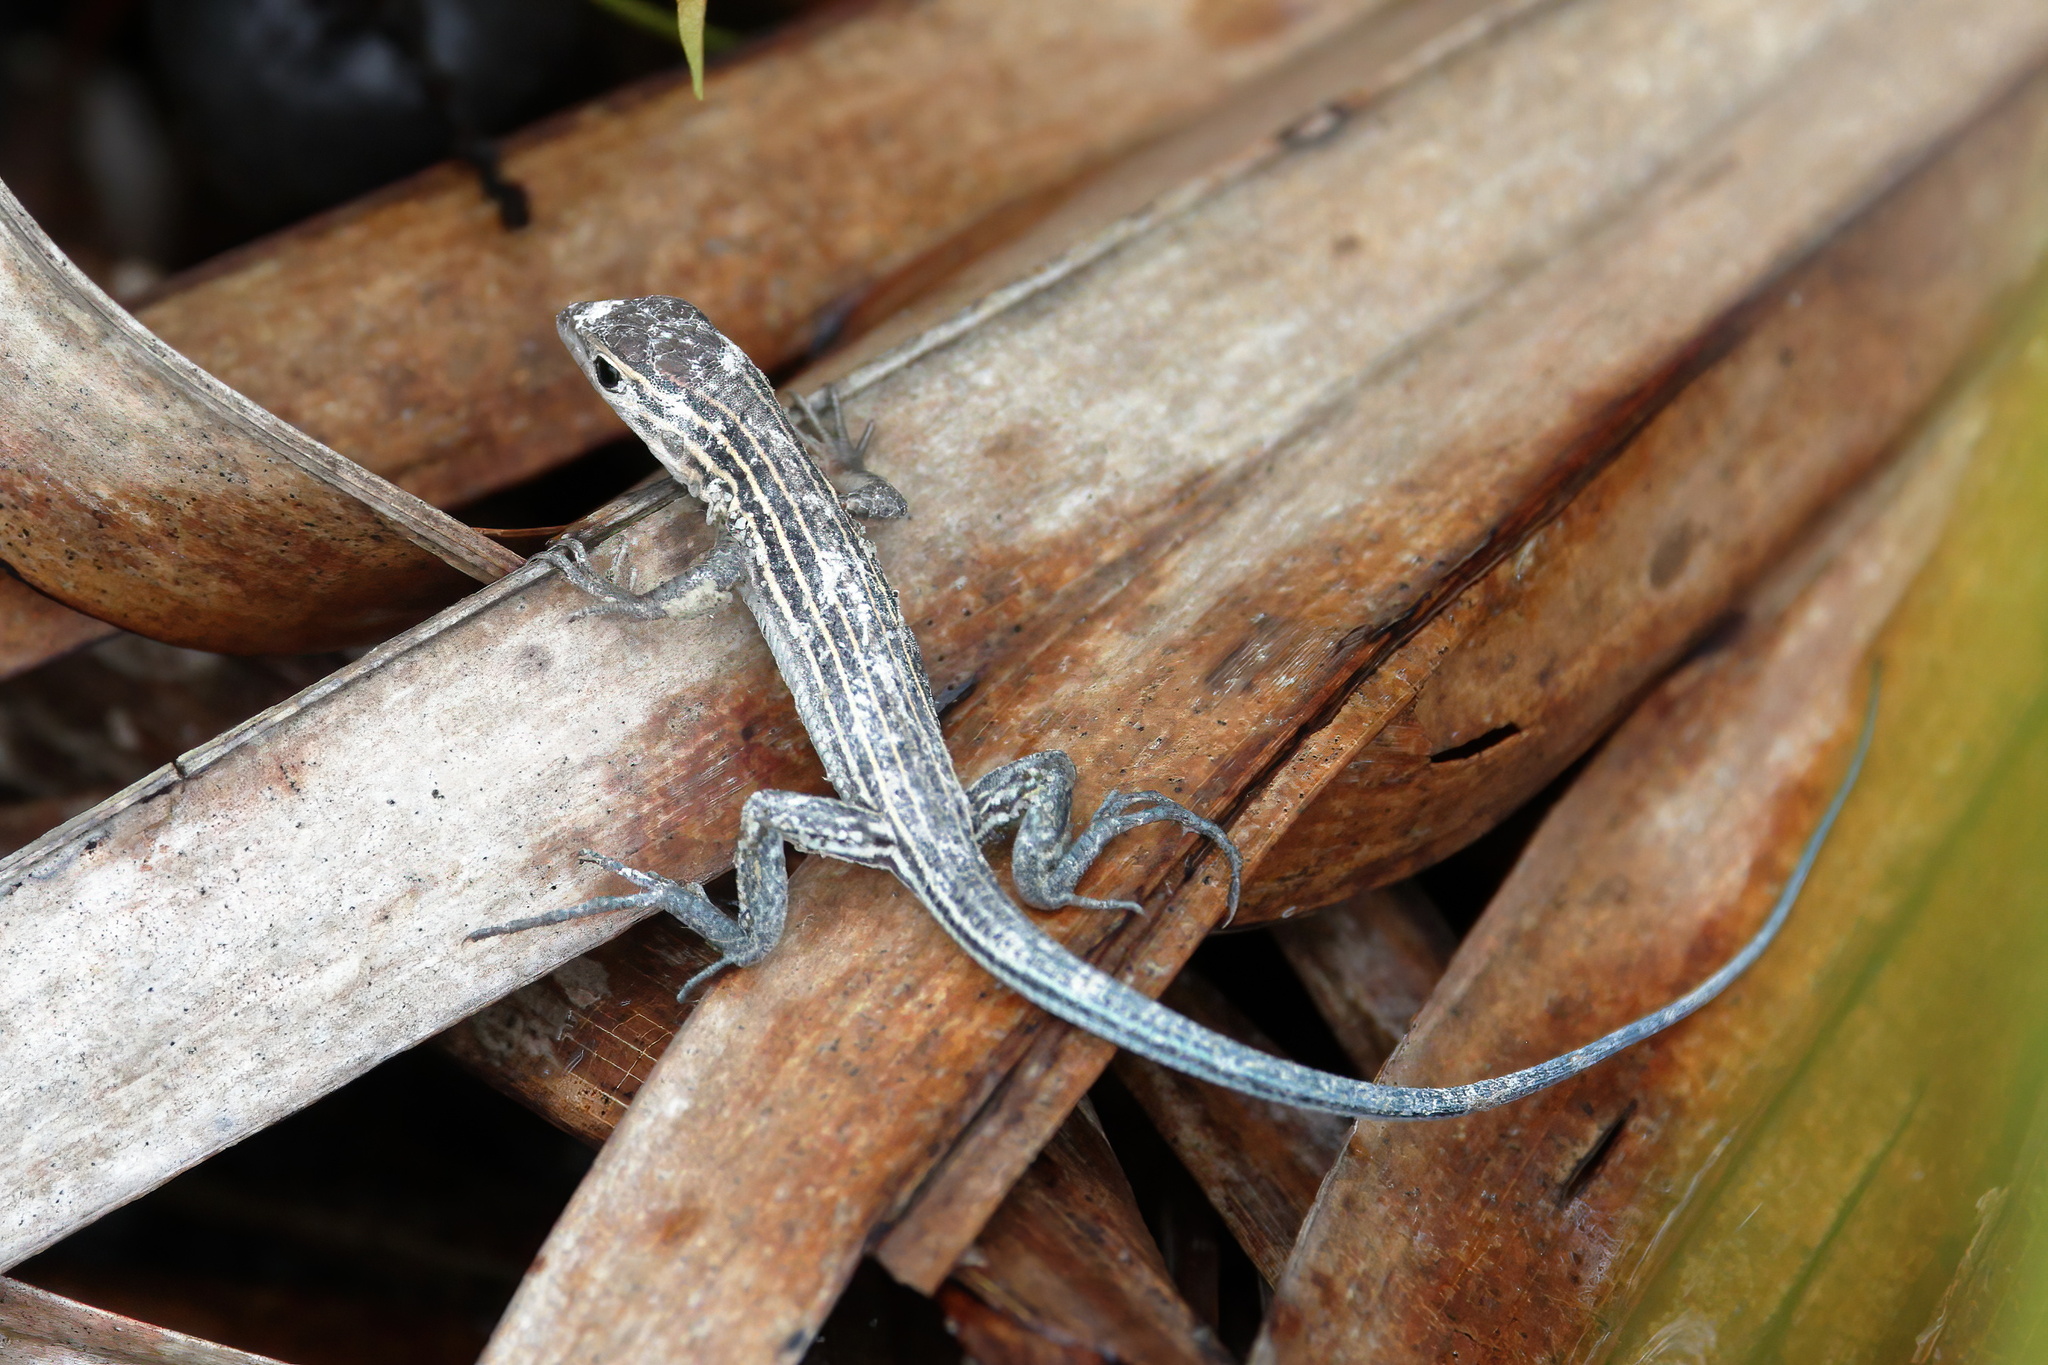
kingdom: Animalia
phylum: Chordata
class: Squamata
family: Teiidae
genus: Aspidoscelis
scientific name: Aspidoscelis sexlineatus
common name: Six-lined racerunner
